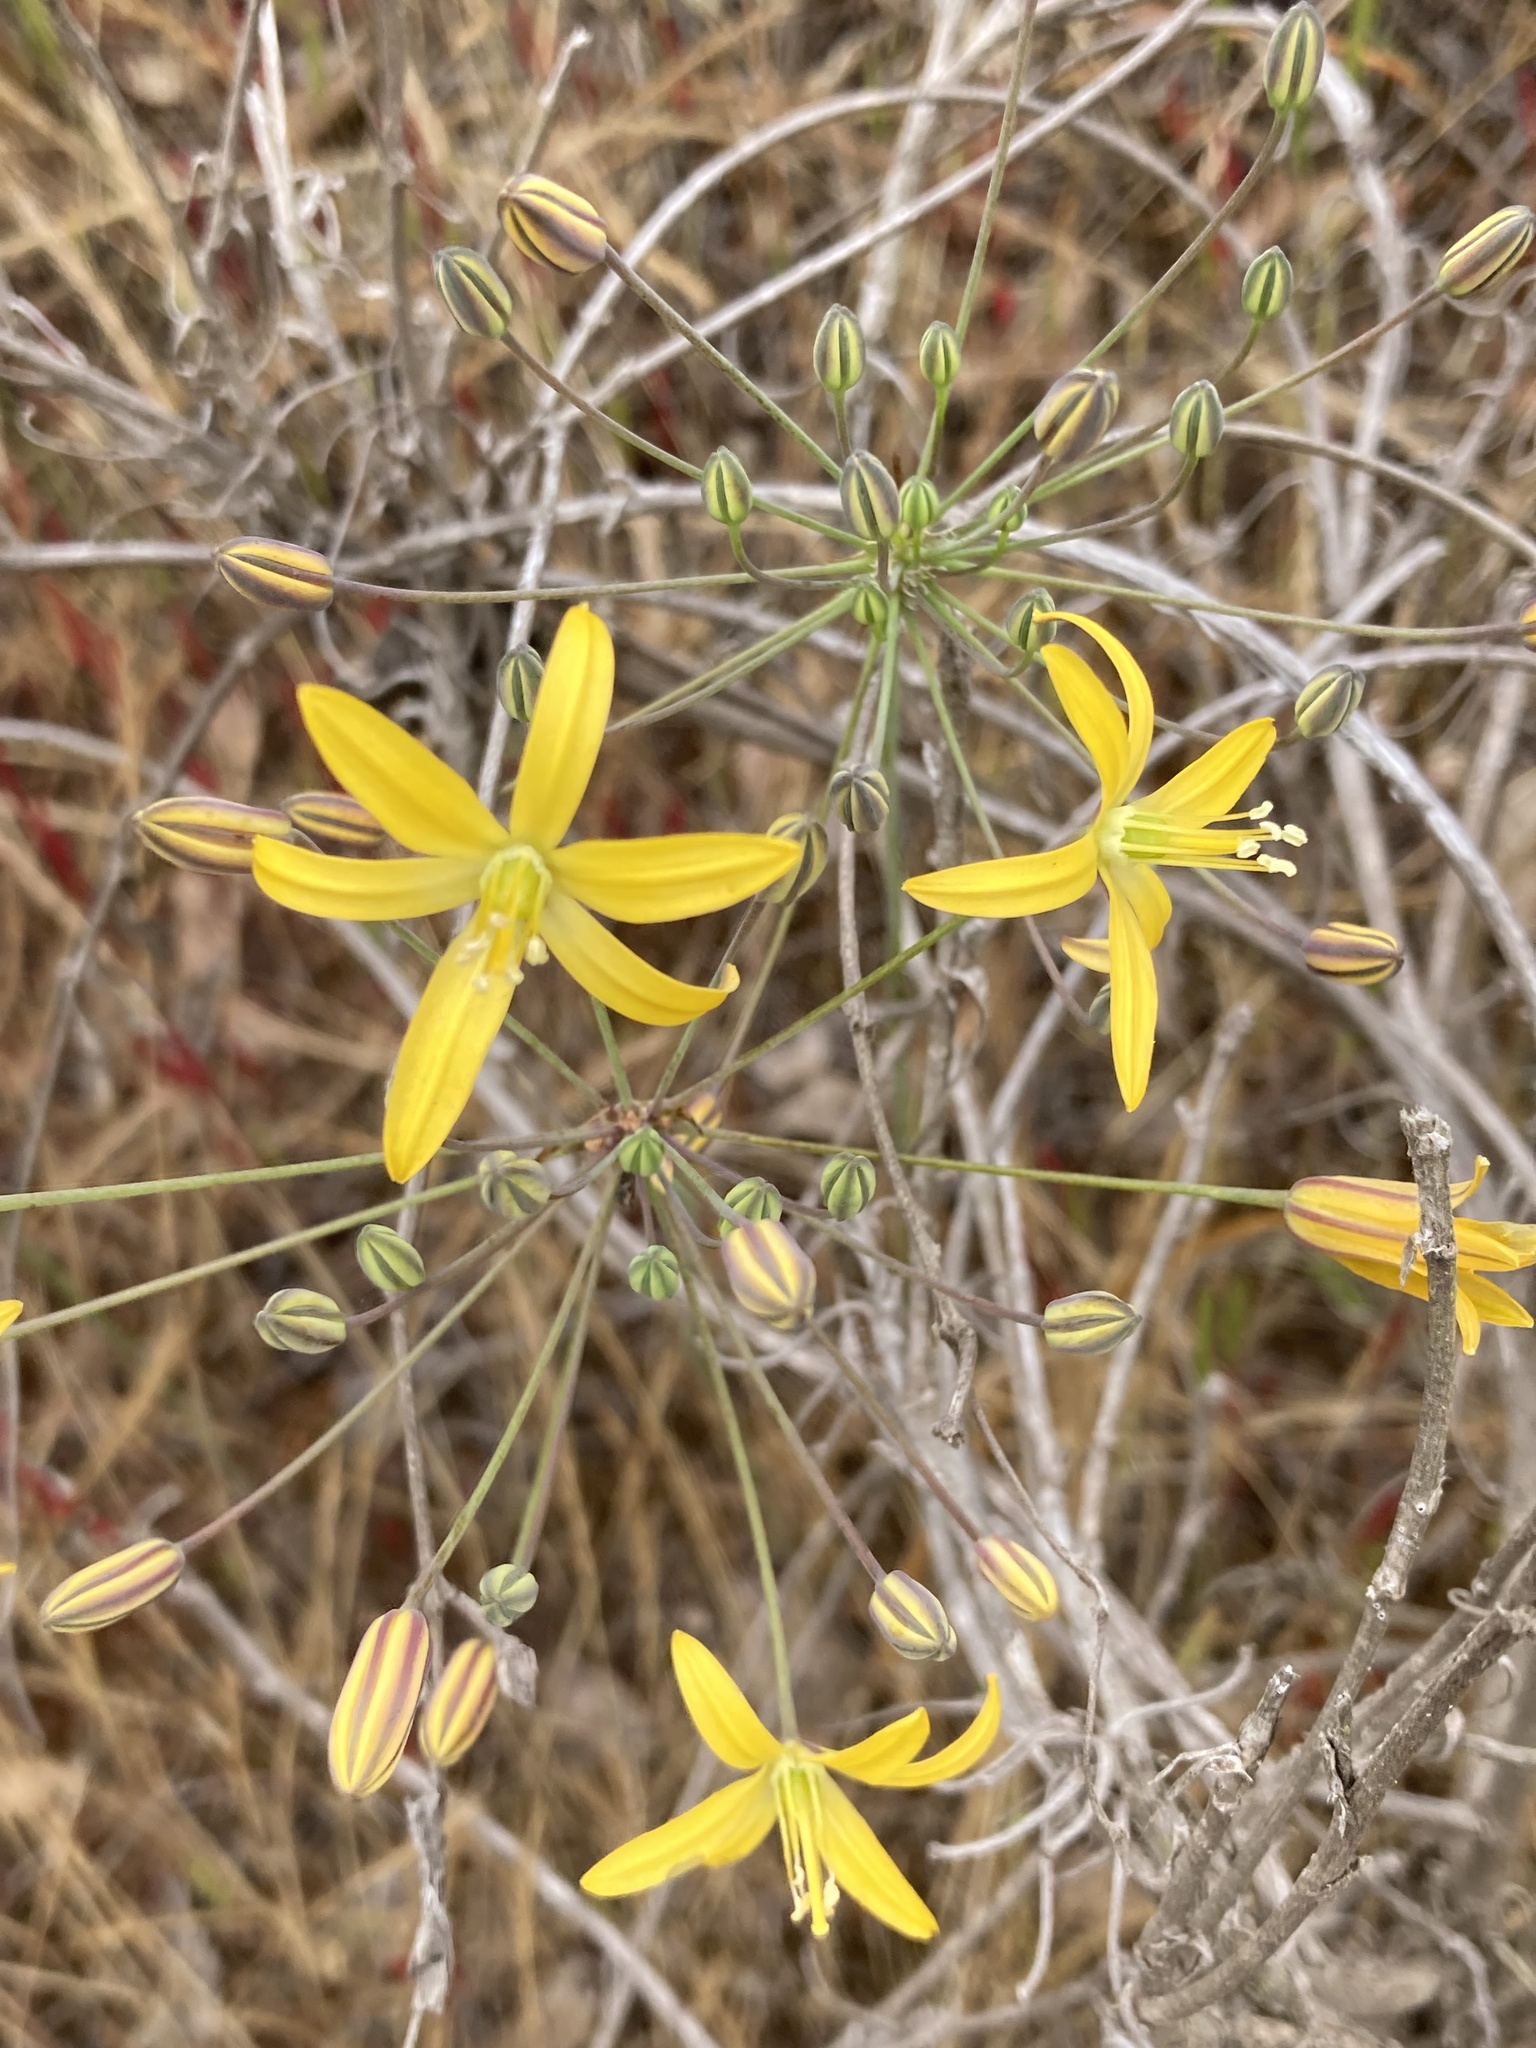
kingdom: Plantae
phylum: Tracheophyta
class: Liliopsida
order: Asparagales
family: Asparagaceae
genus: Bloomeria
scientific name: Bloomeria crocea
